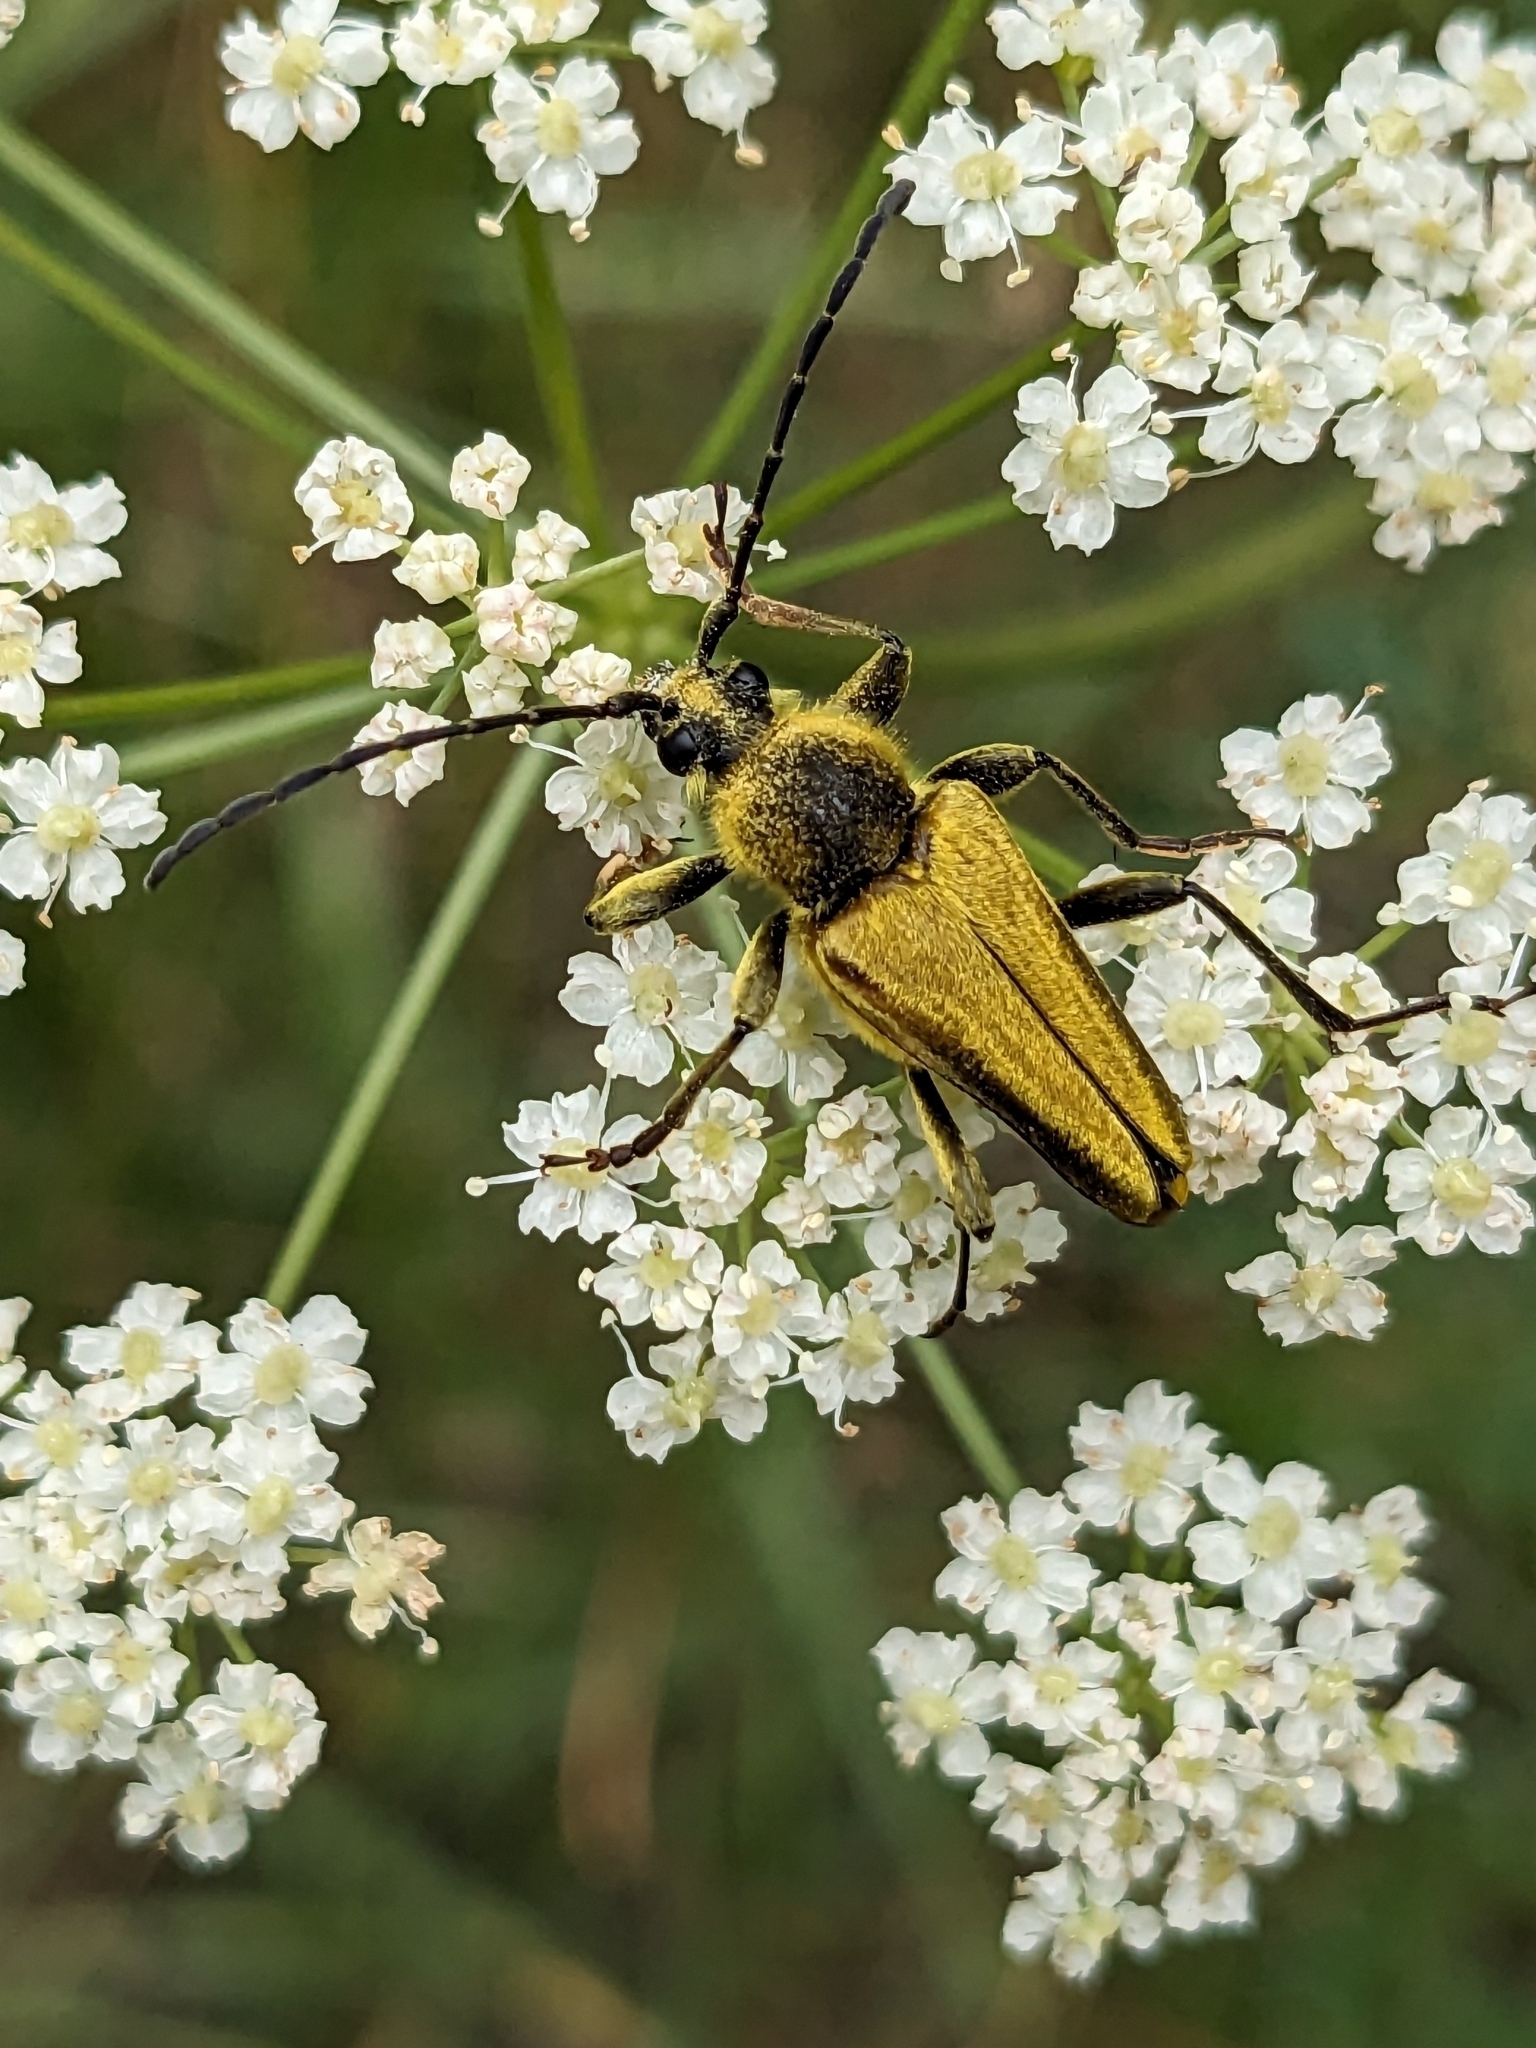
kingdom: Animalia
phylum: Arthropoda
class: Insecta
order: Coleoptera
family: Cerambycidae
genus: Cosmosalia
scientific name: Cosmosalia chrysocoma
